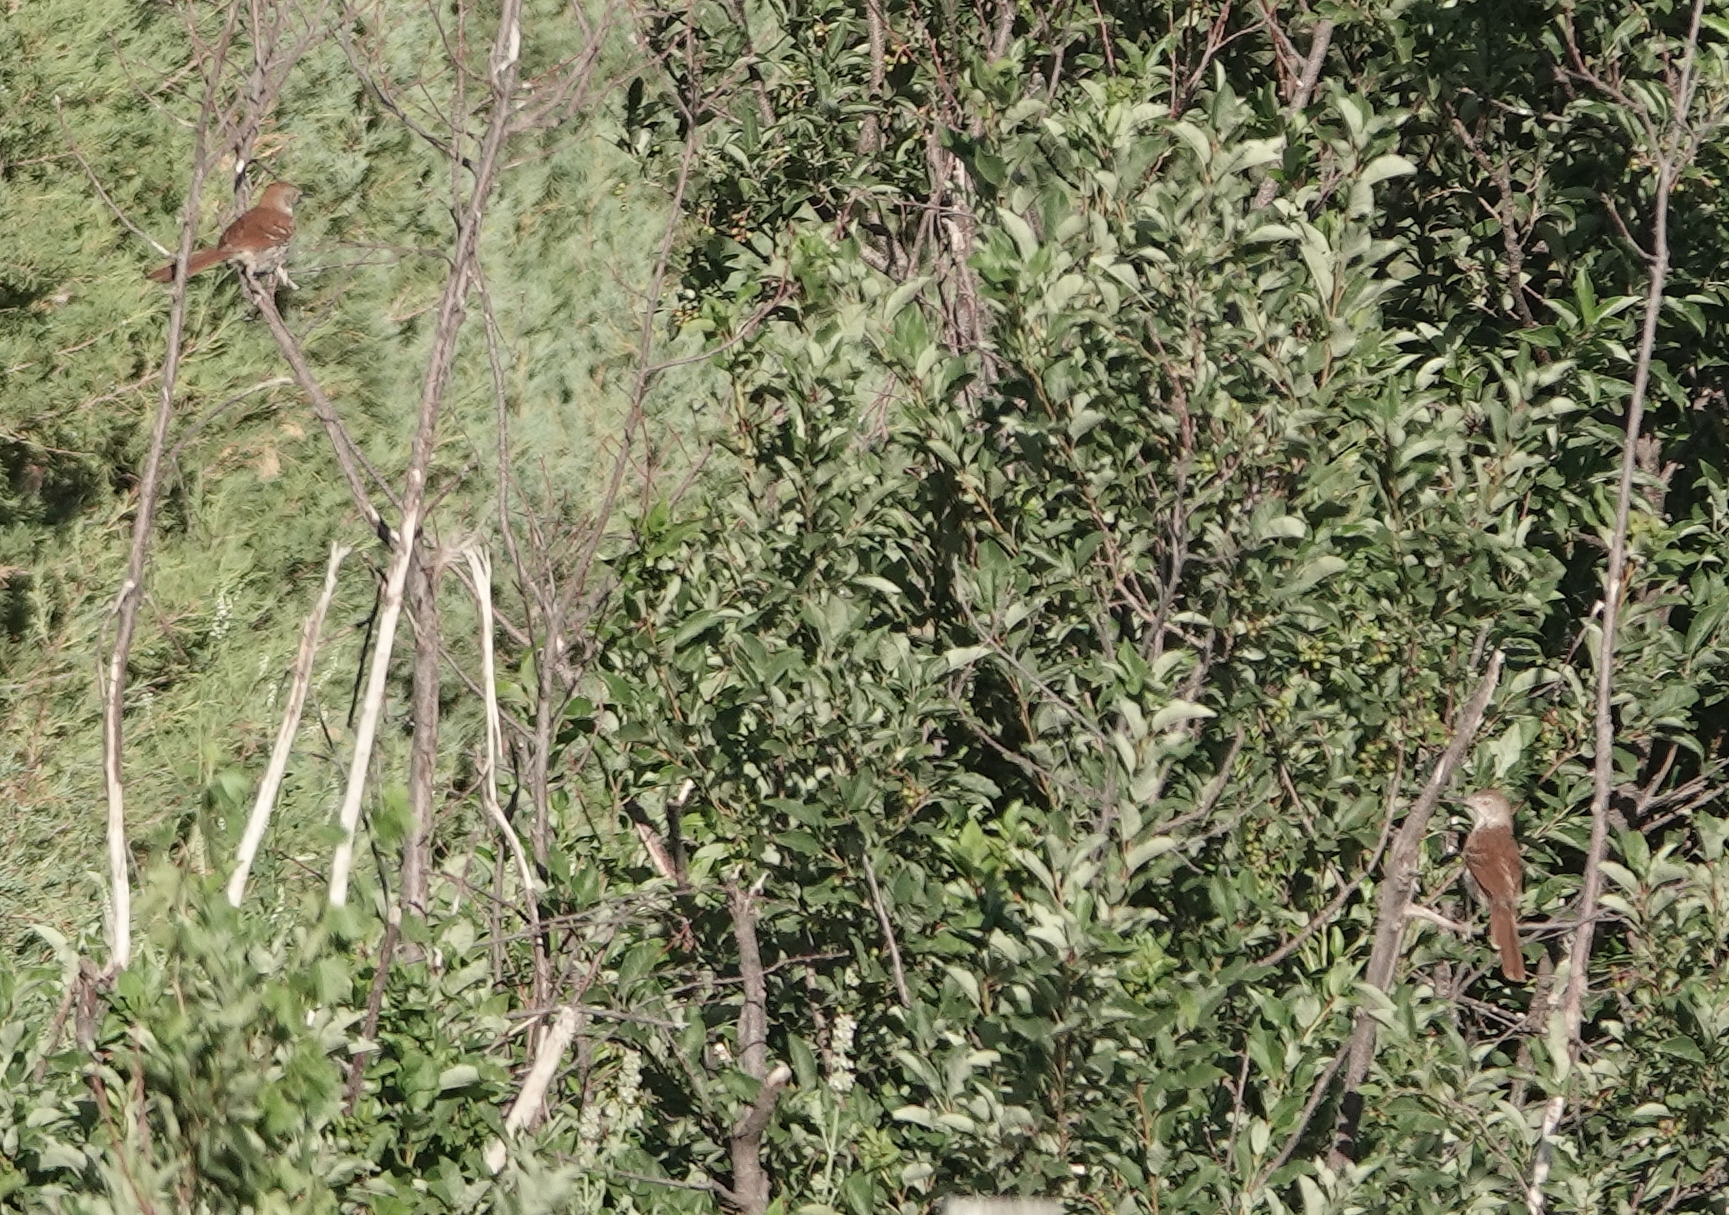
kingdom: Animalia
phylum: Chordata
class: Aves
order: Passeriformes
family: Mimidae
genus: Toxostoma
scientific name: Toxostoma rufum
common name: Brown thrasher
